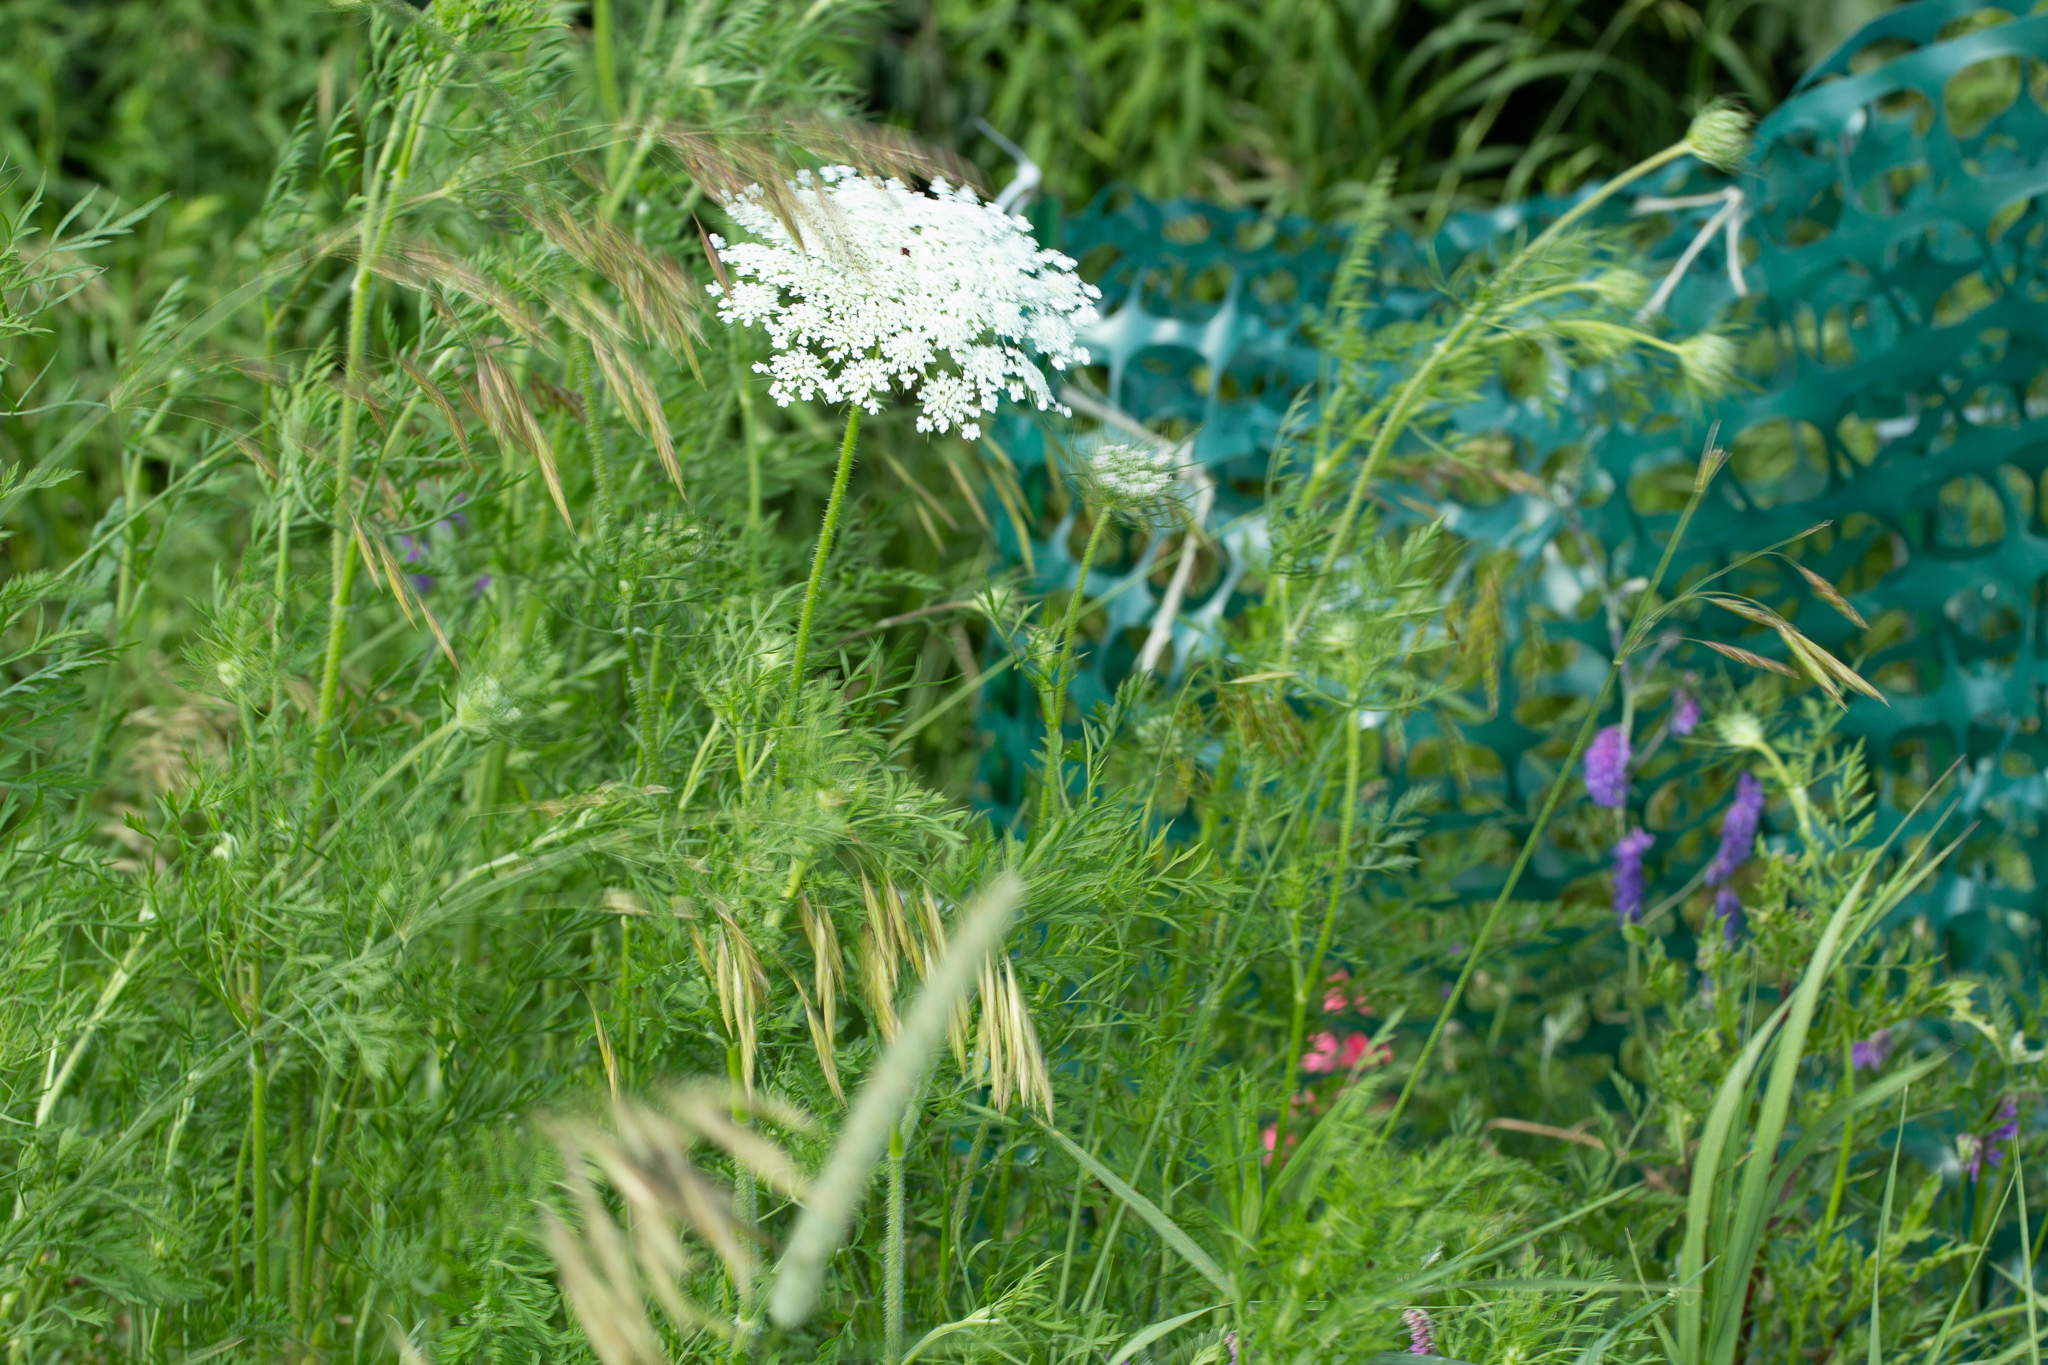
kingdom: Plantae
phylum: Tracheophyta
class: Magnoliopsida
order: Apiales
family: Apiaceae
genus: Daucus
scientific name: Daucus carota
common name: Wild carrot
